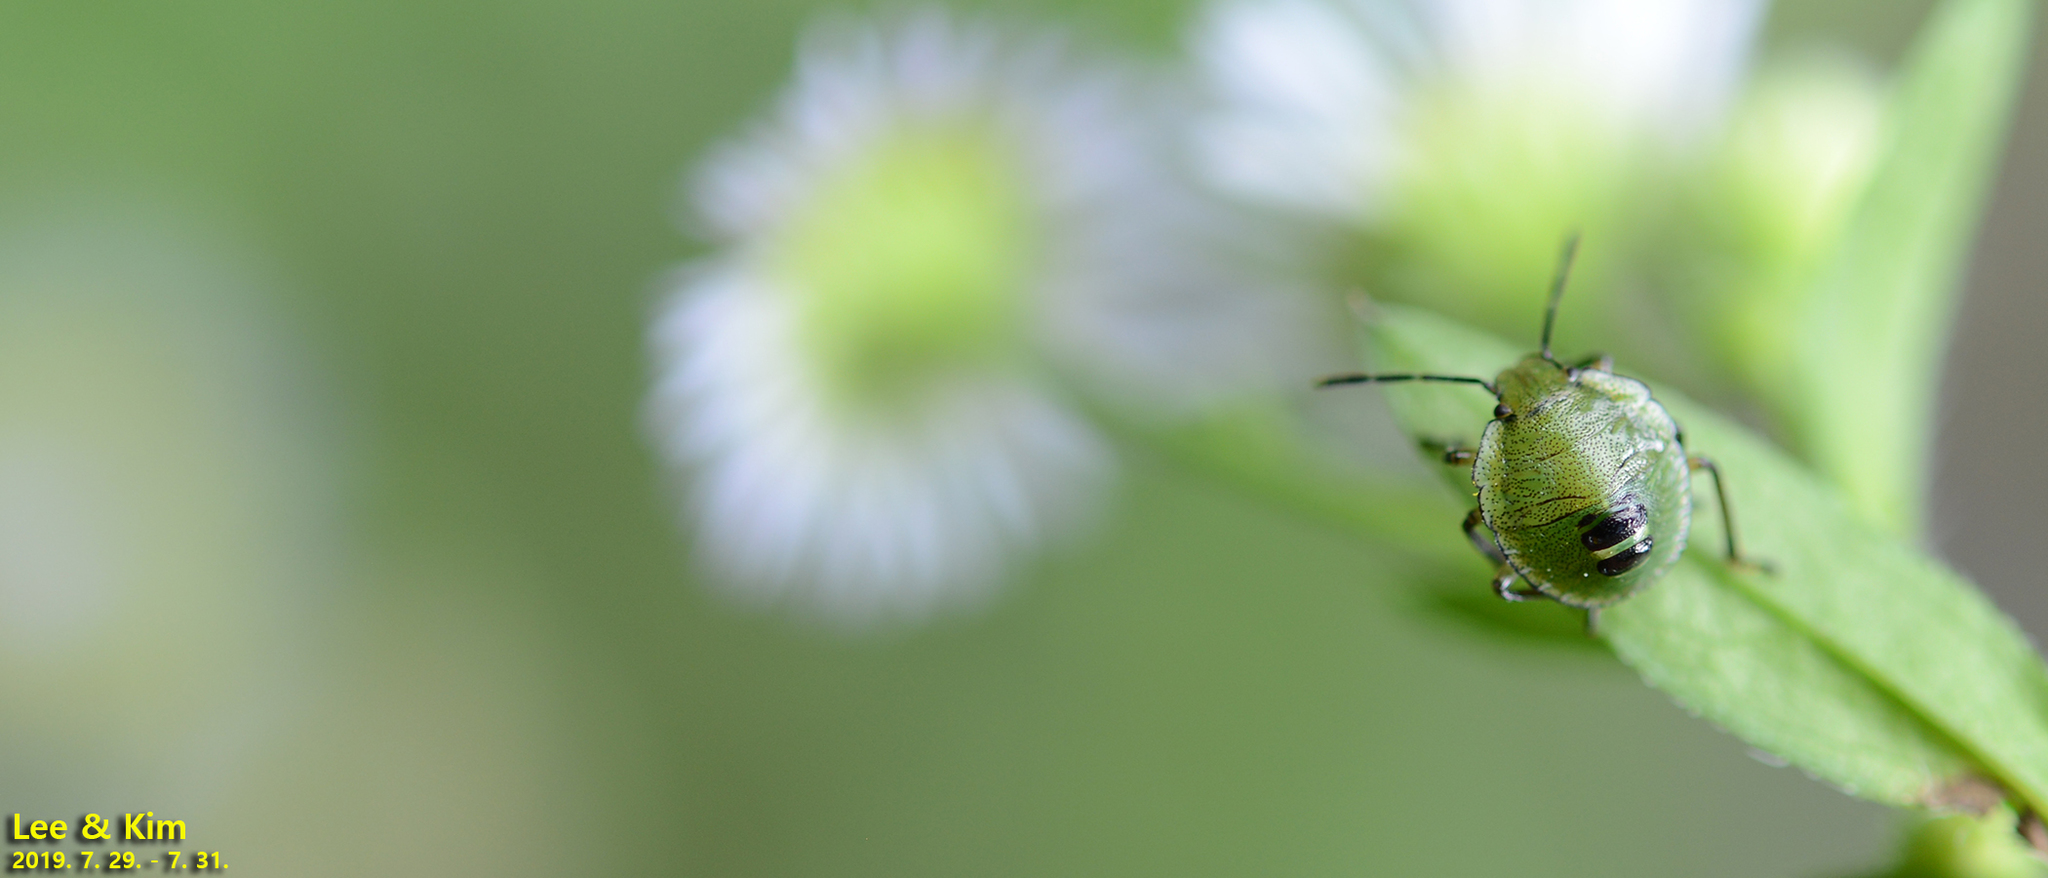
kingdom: Animalia
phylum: Arthropoda
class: Insecta
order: Hemiptera
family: Pentatomidae
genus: Palomena
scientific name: Palomena
